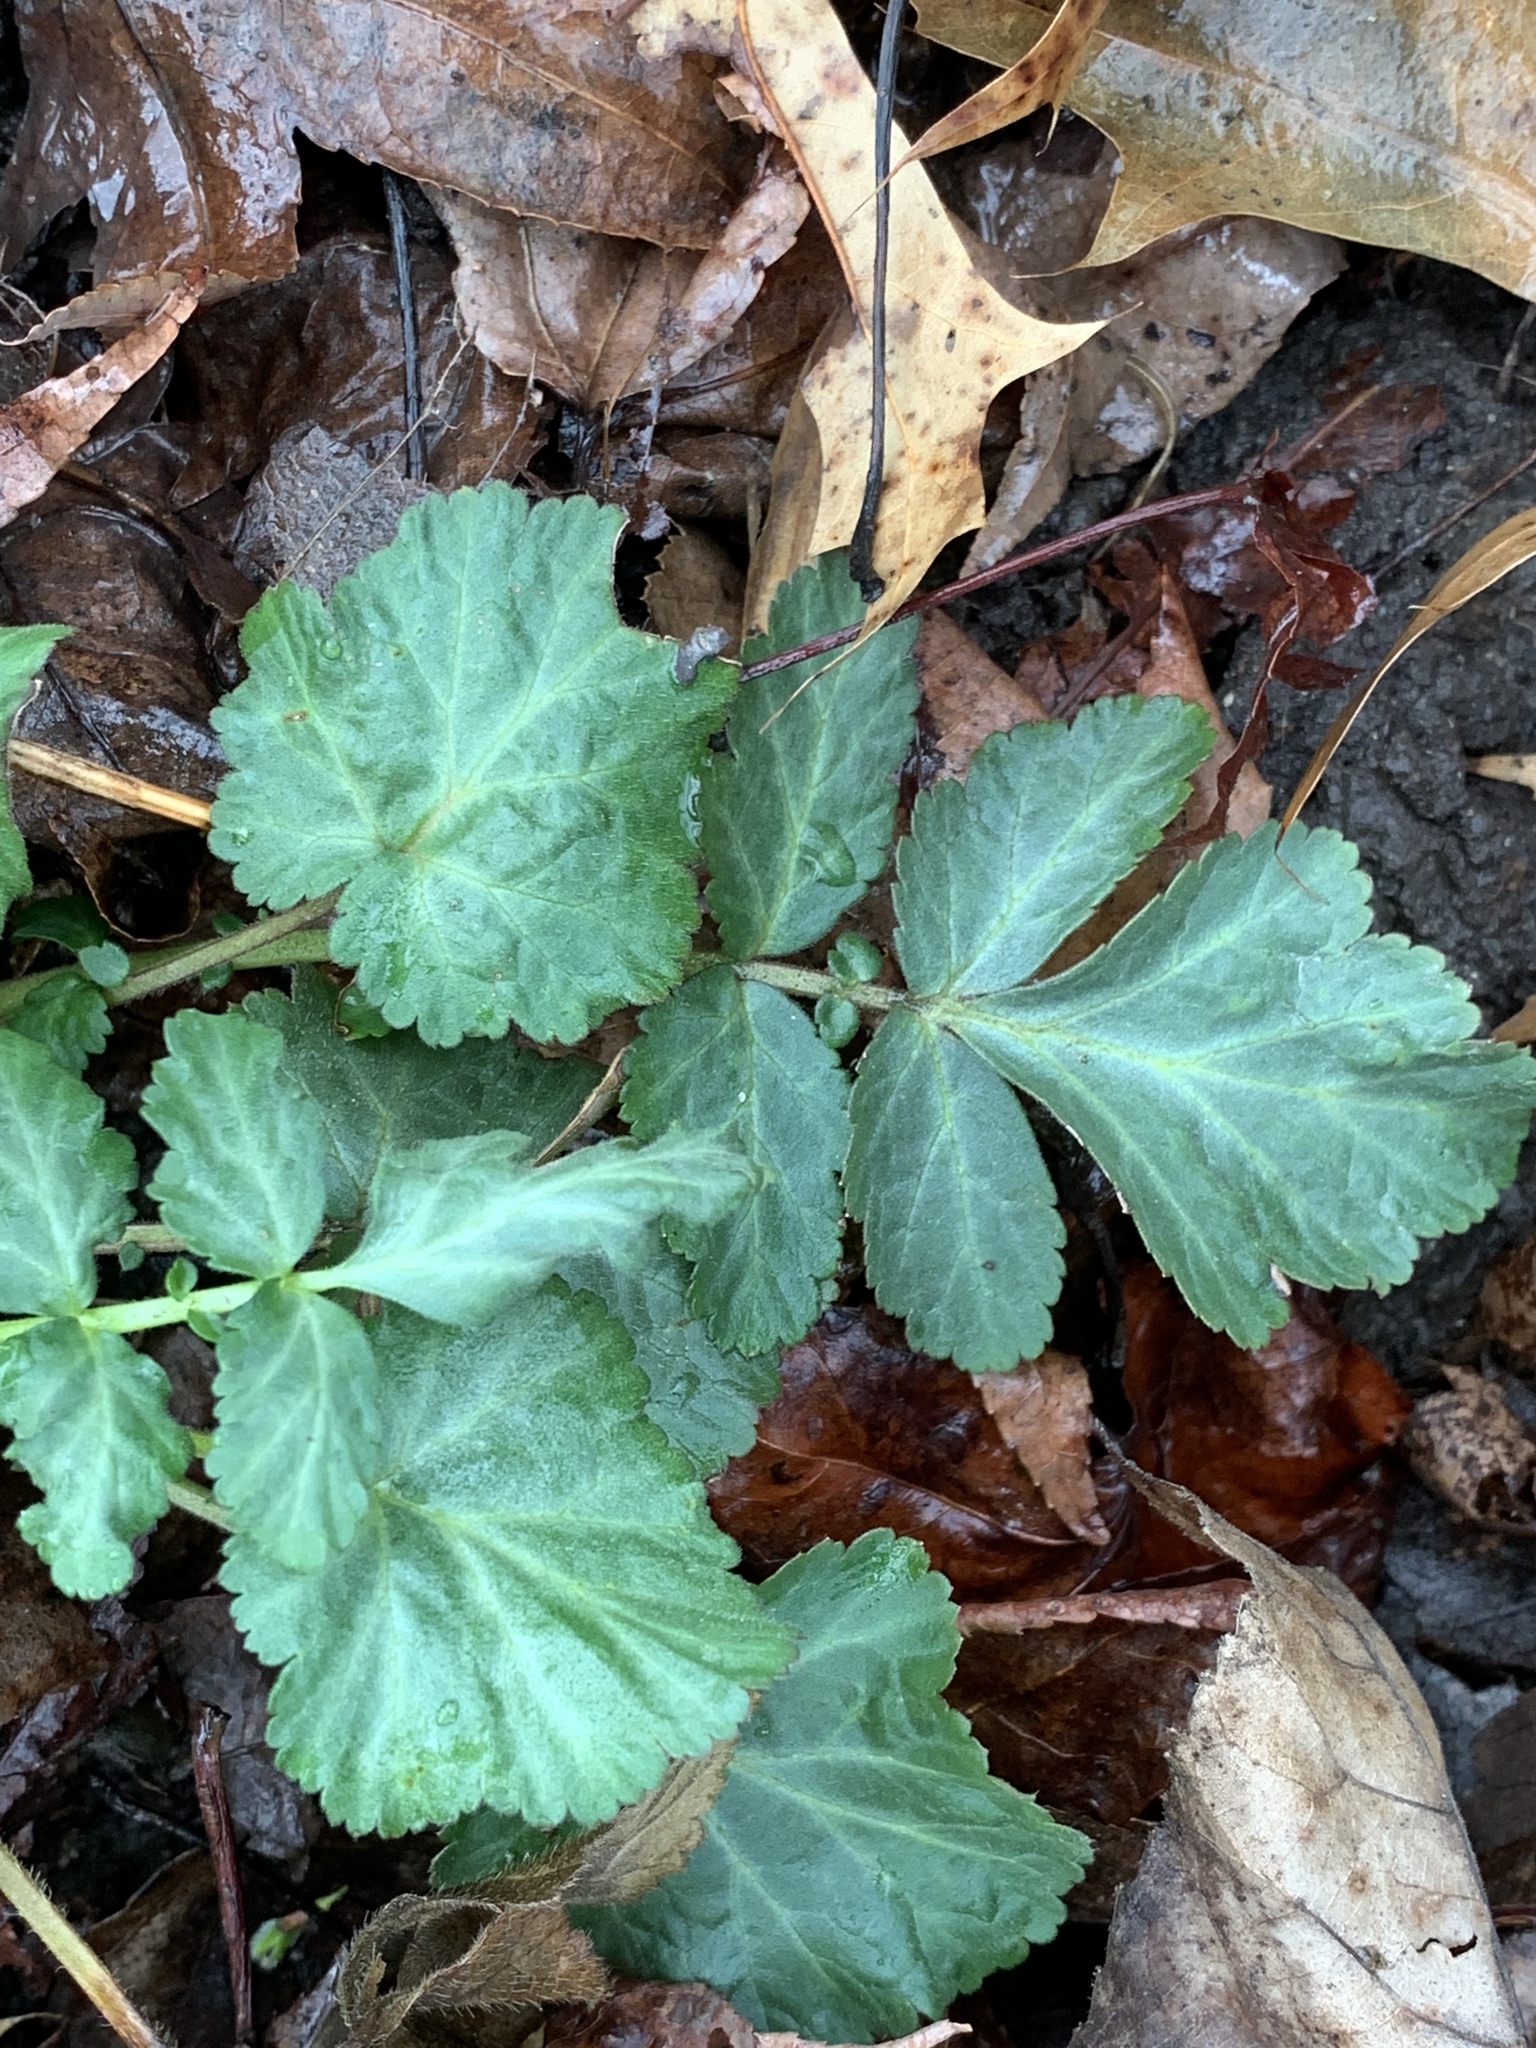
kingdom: Plantae
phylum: Tracheophyta
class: Magnoliopsida
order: Rosales
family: Rosaceae
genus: Geum
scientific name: Geum canadense
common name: White avens
